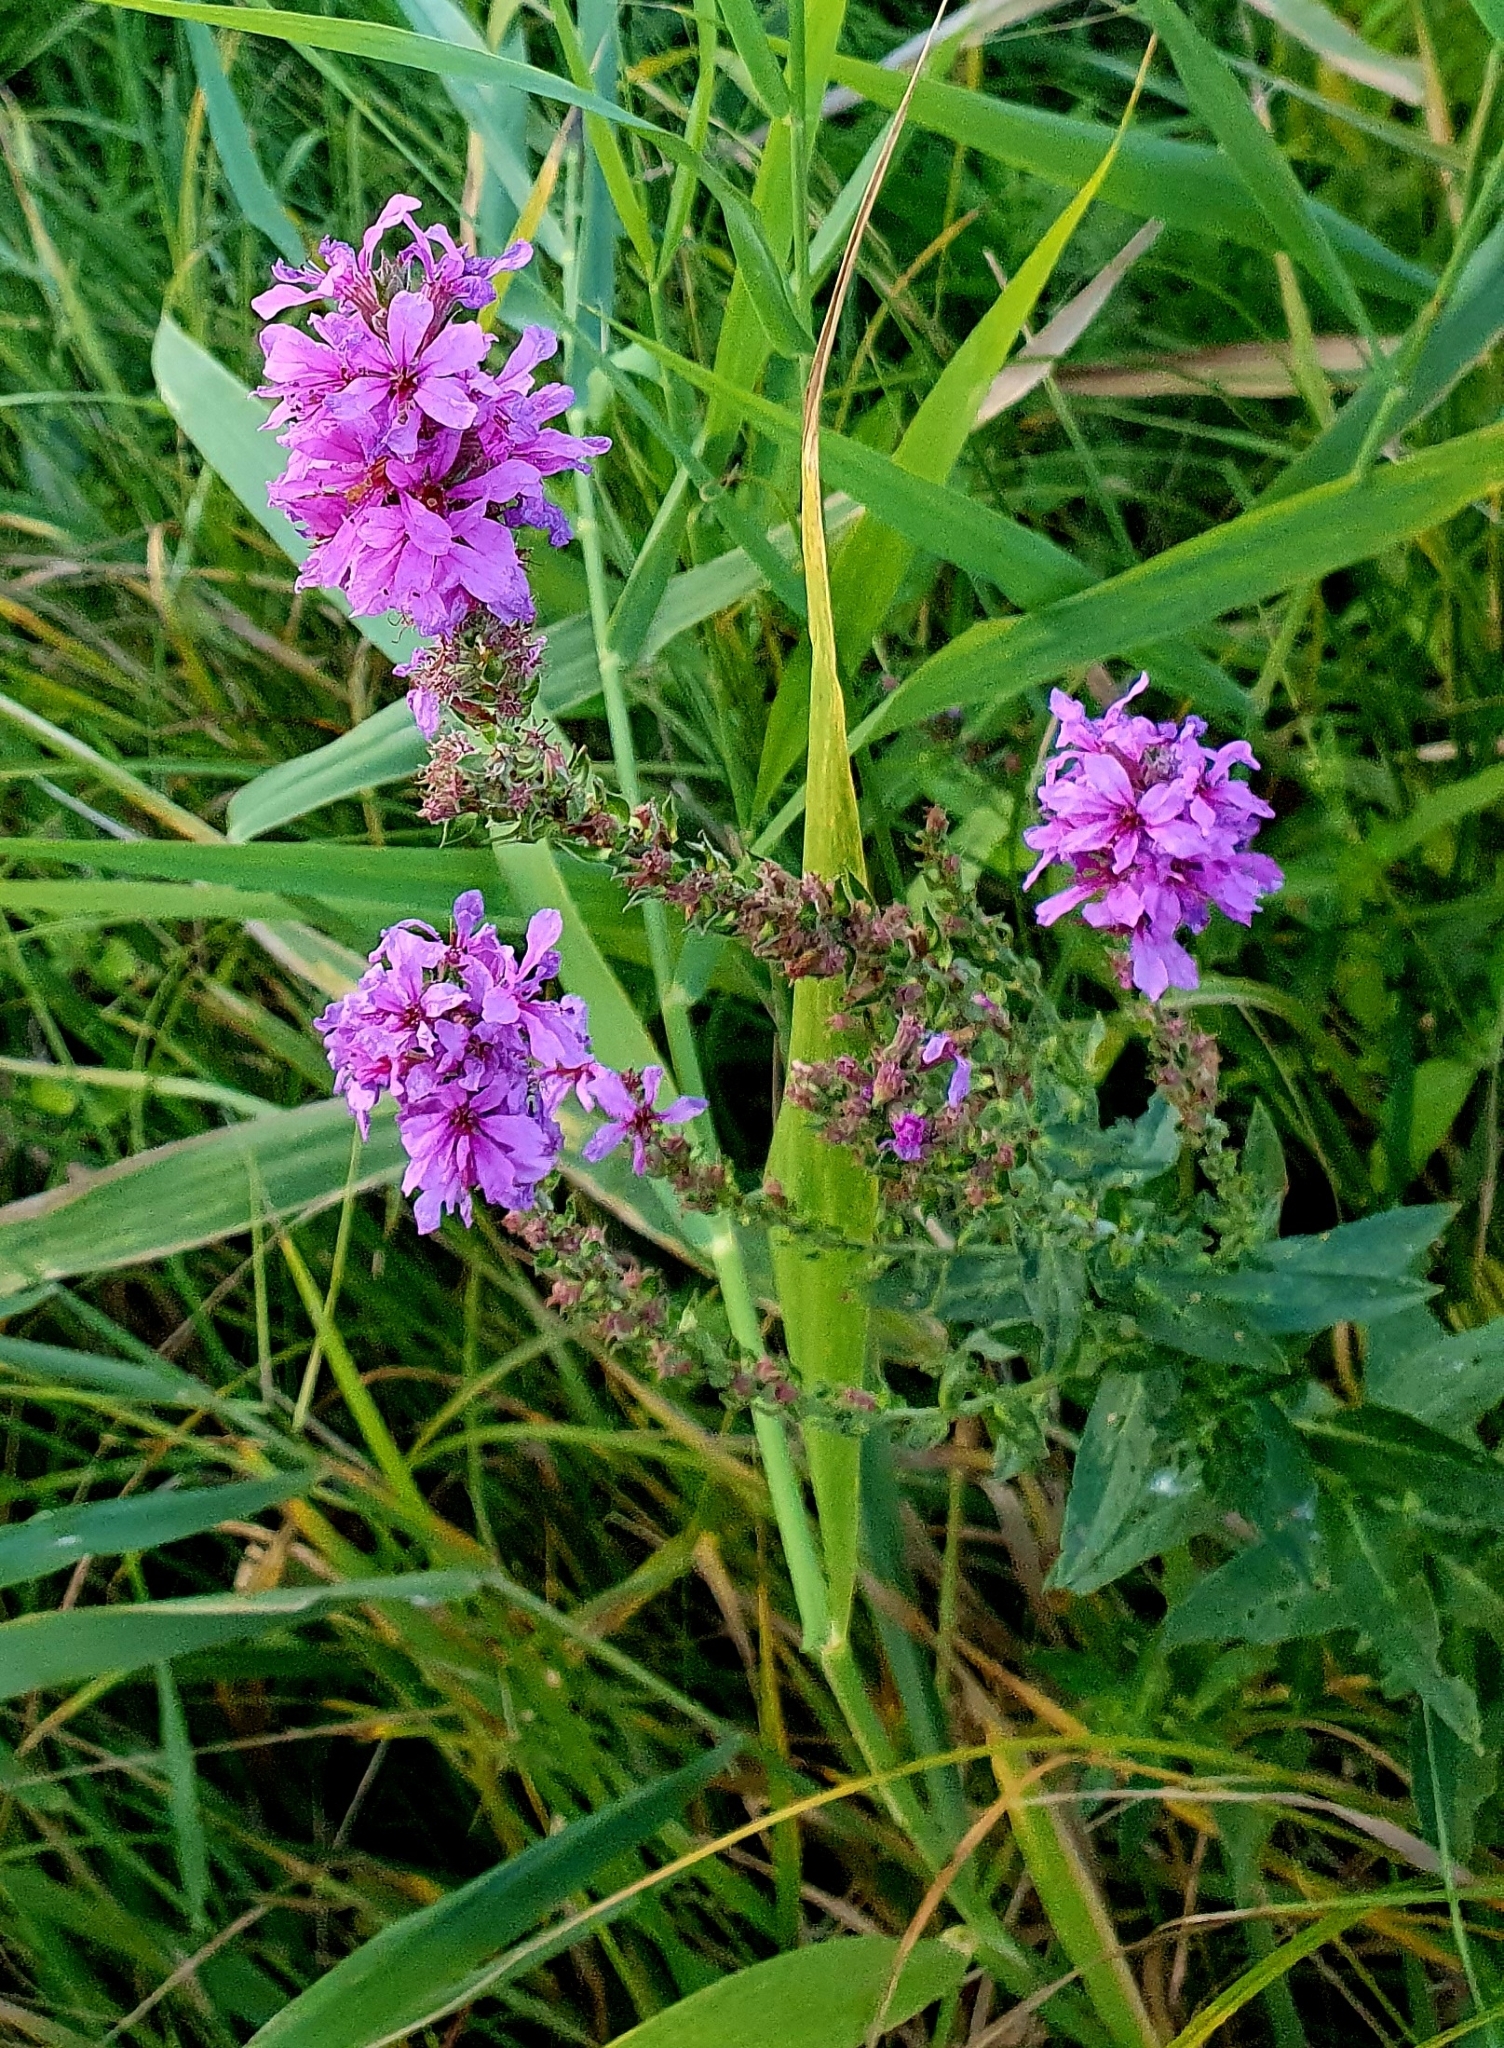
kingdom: Plantae
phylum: Tracheophyta
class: Magnoliopsida
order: Myrtales
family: Lythraceae
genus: Lythrum
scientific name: Lythrum salicaria
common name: Purple loosestrife
